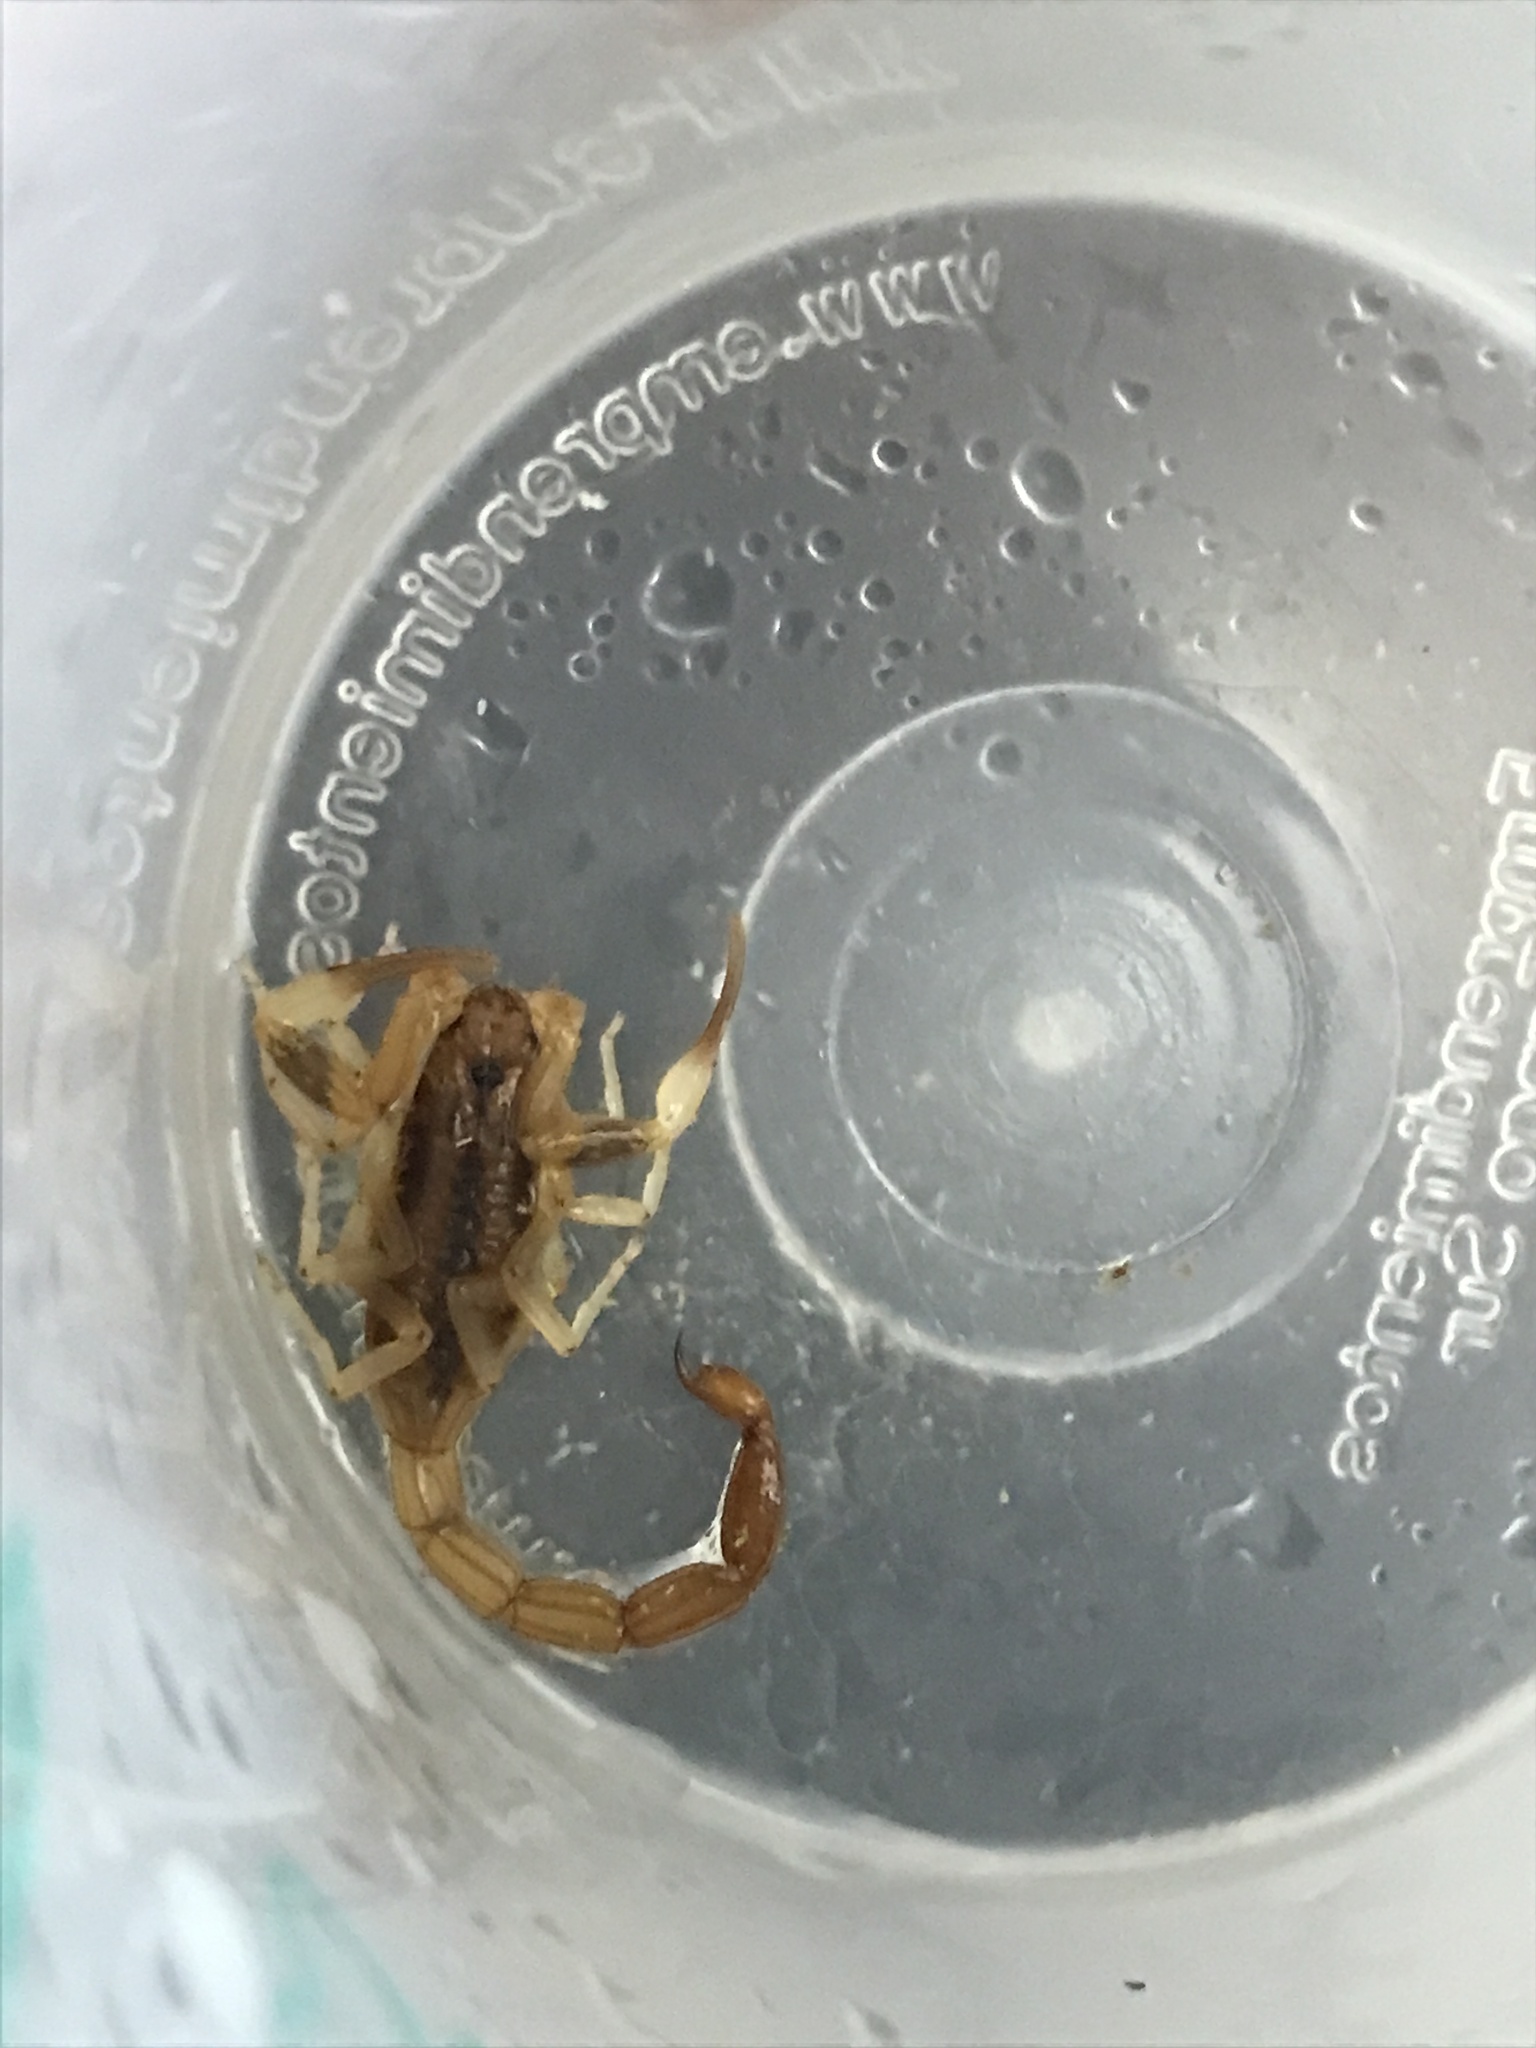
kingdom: Animalia
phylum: Arthropoda
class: Arachnida
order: Scorpiones
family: Buthidae
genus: Tityus
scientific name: Tityus carrilloi
